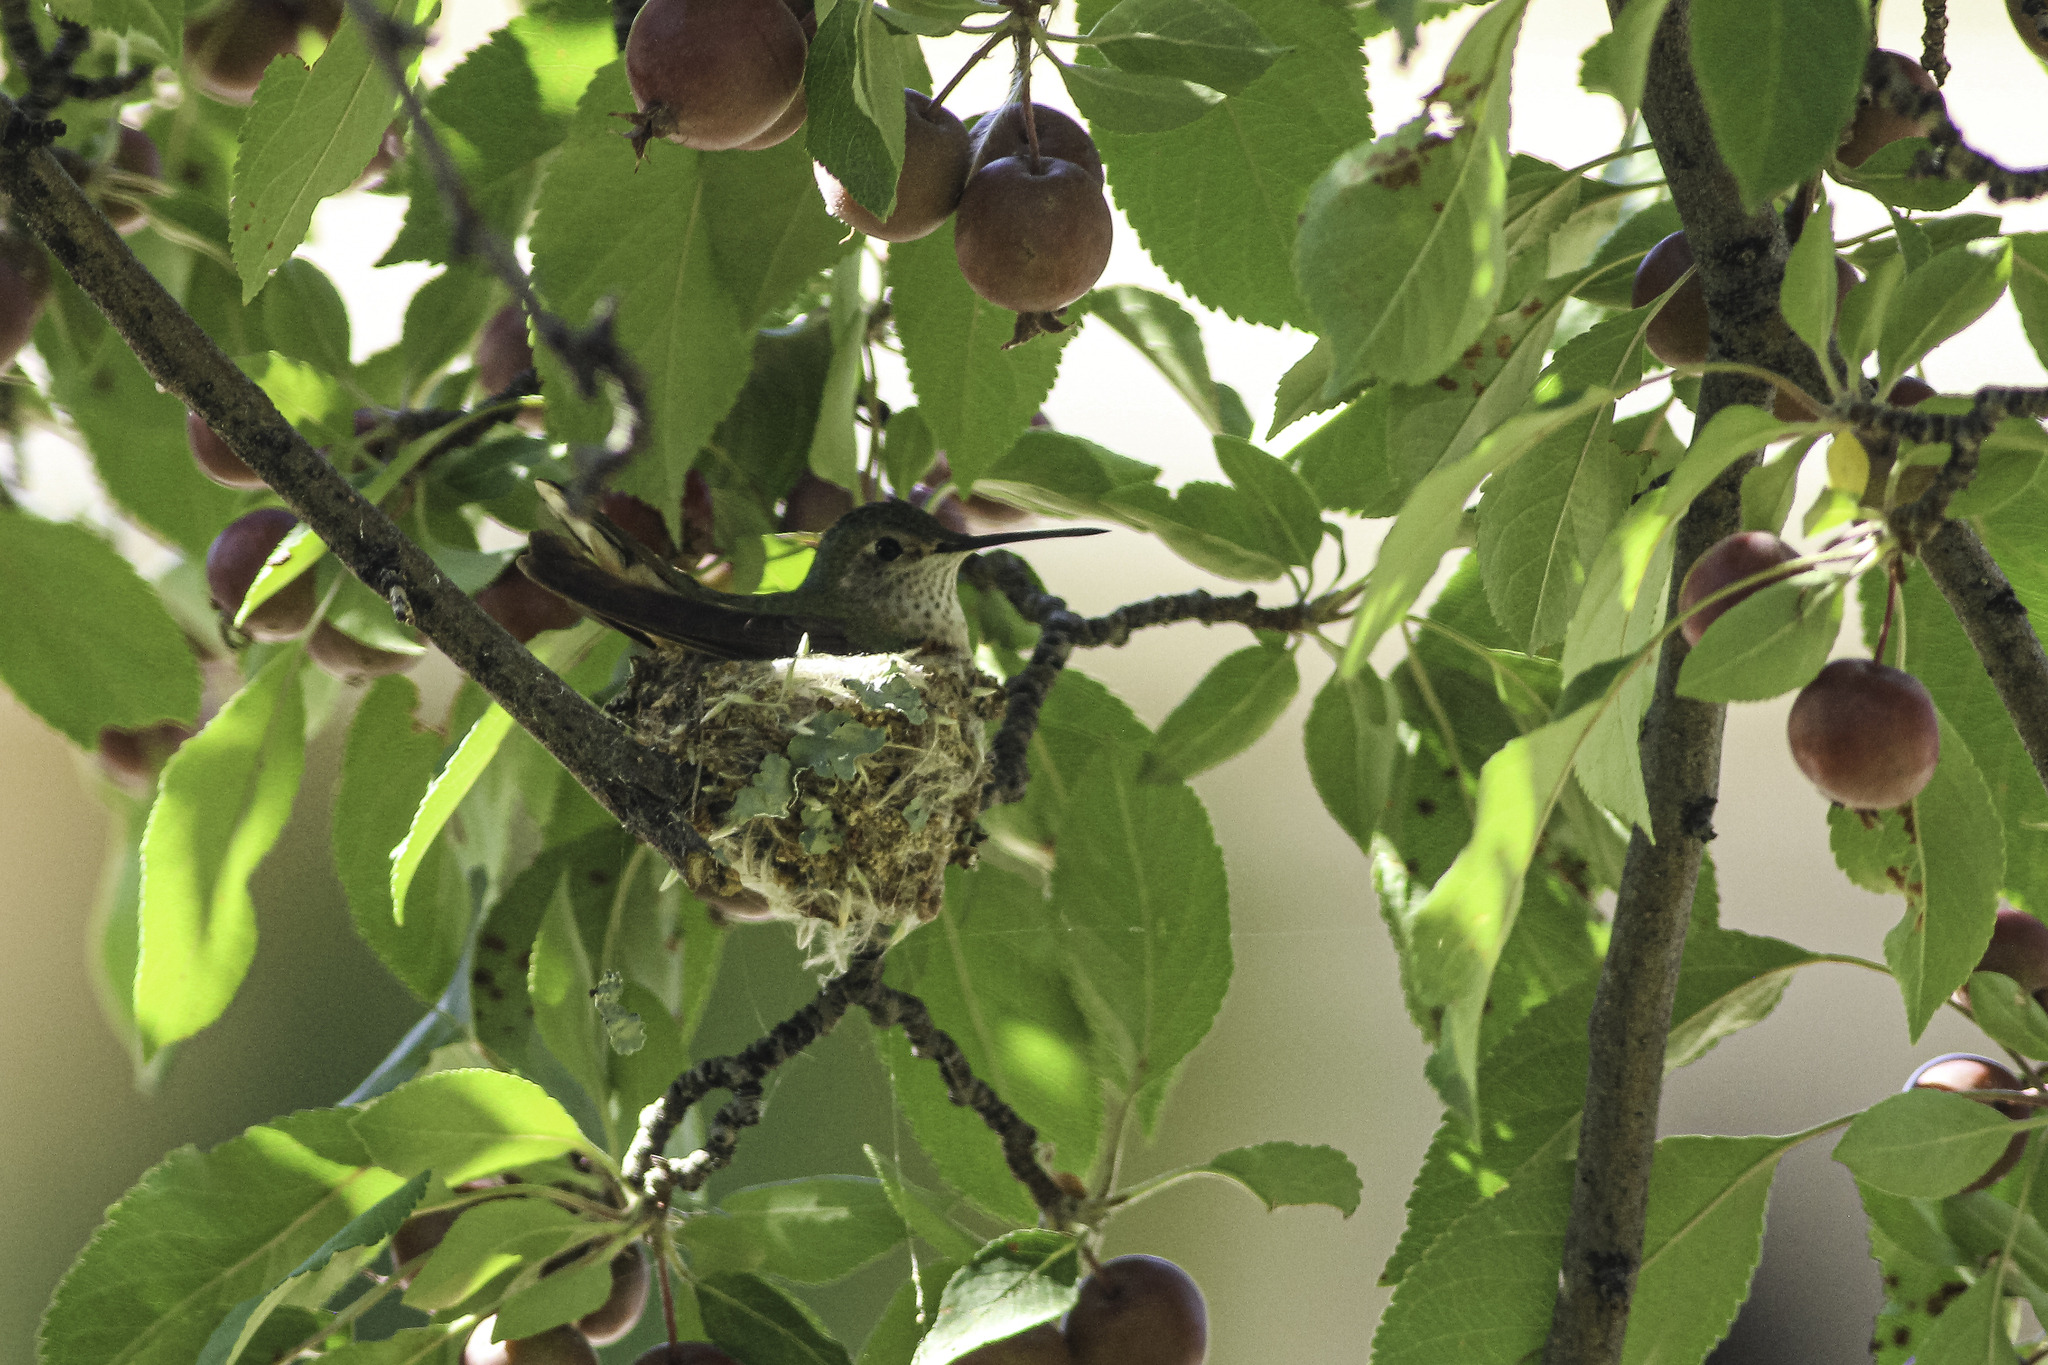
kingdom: Animalia
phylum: Chordata
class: Aves
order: Apodiformes
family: Trochilidae
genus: Selasphorus
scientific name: Selasphorus platycercus
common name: Broad-tailed hummingbird
